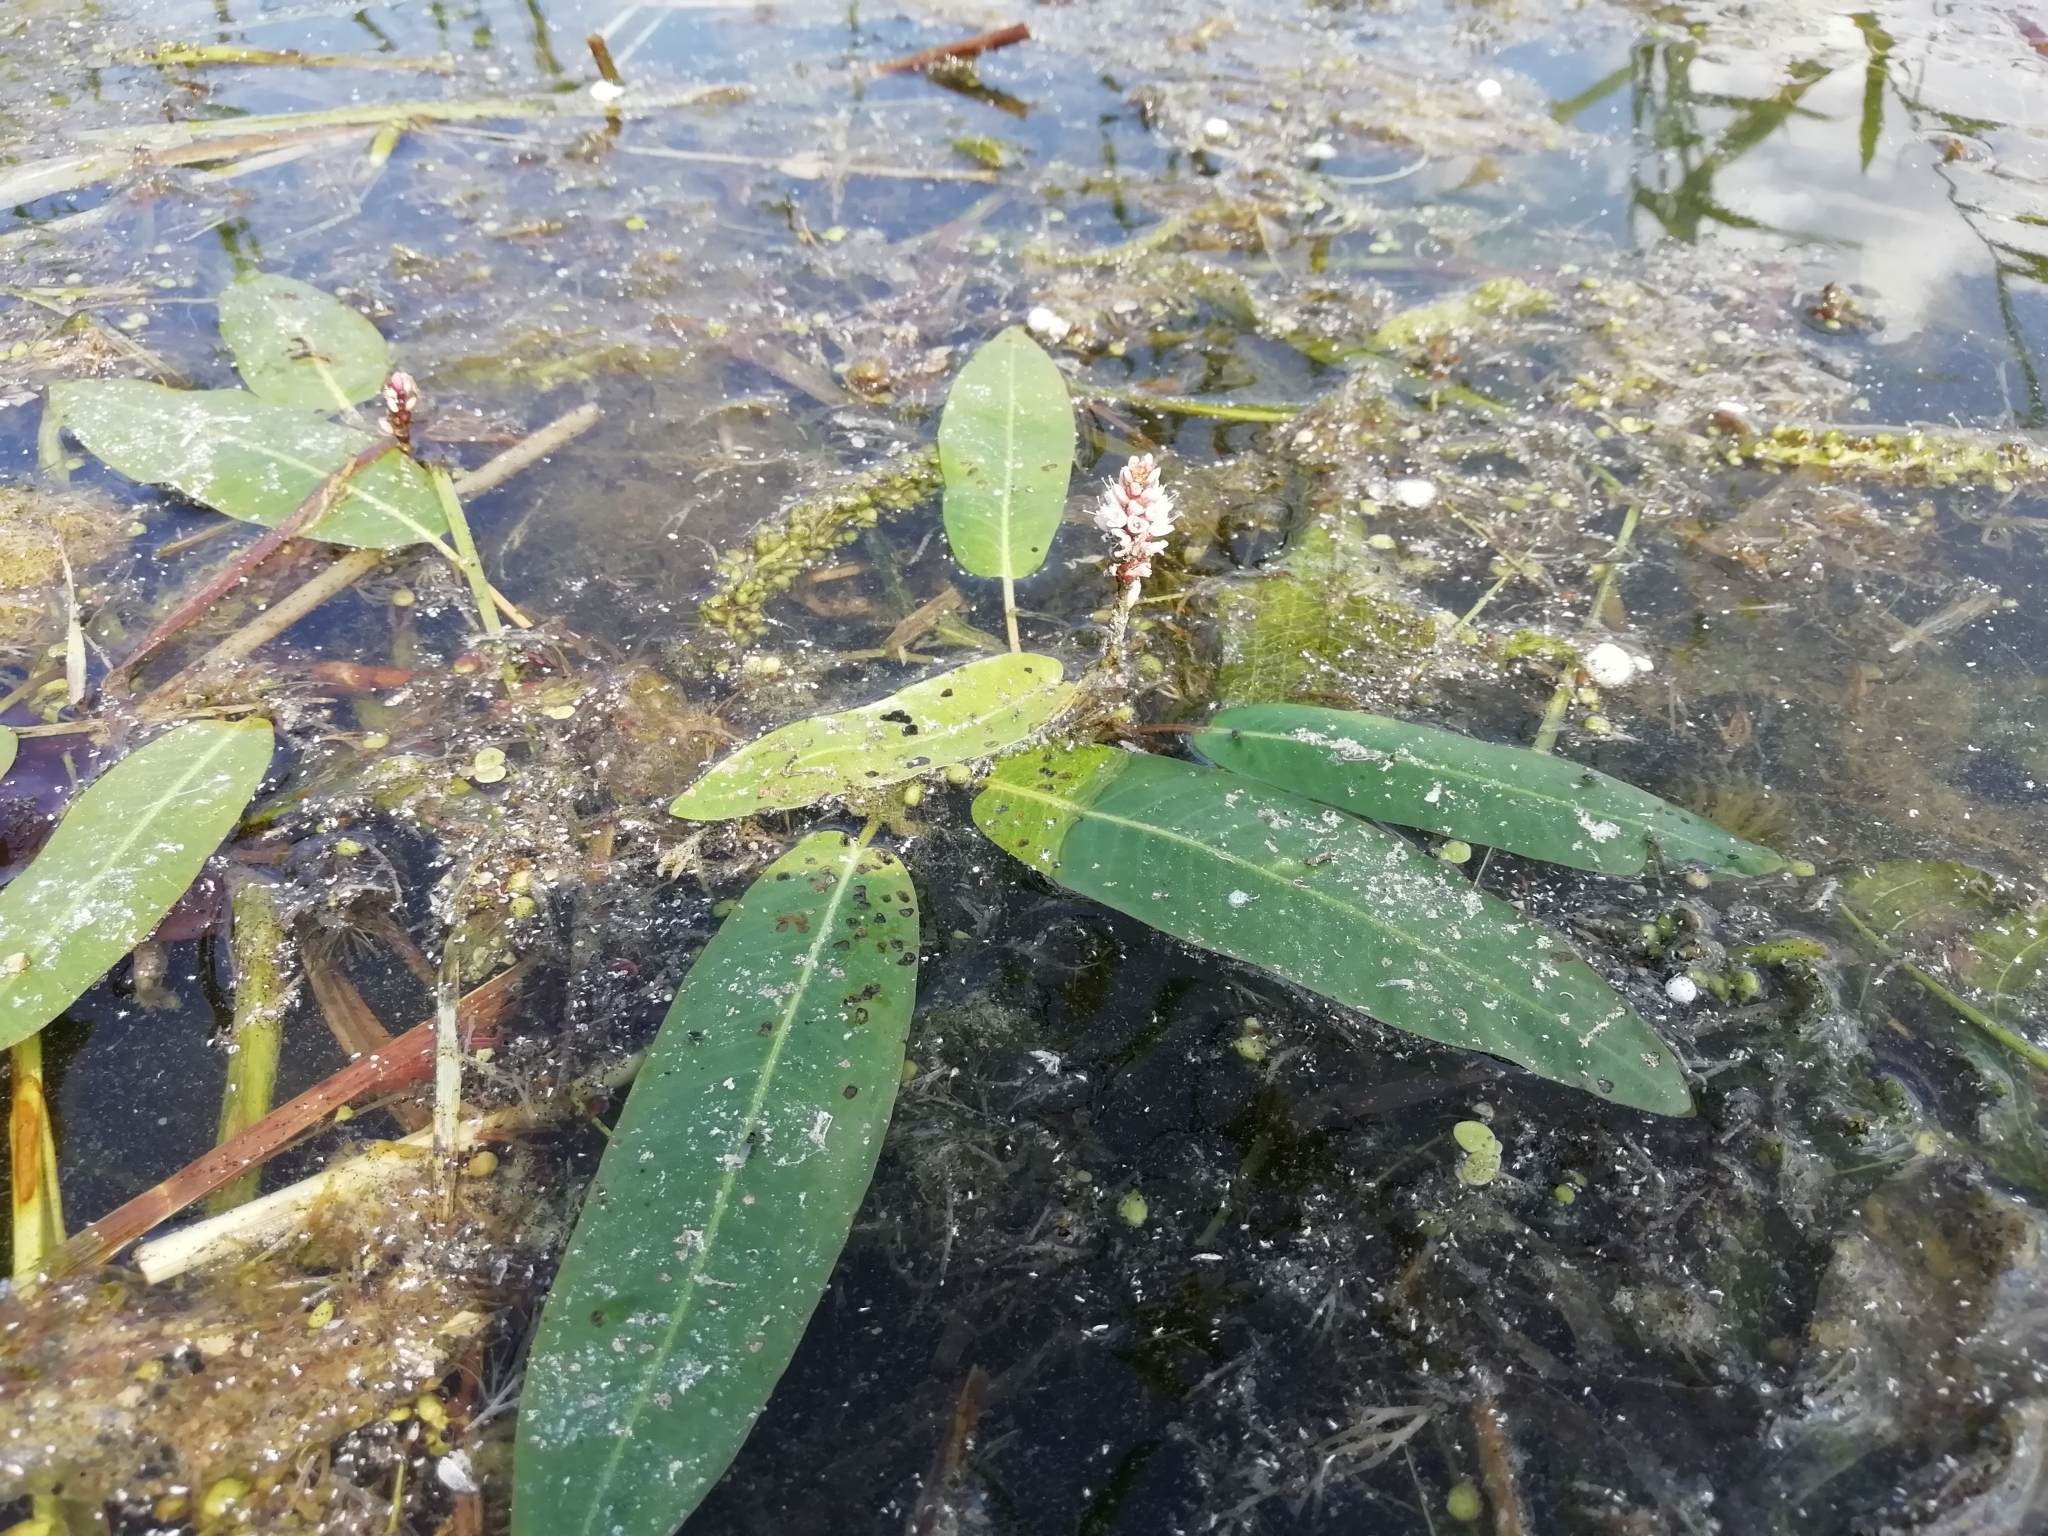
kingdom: Plantae
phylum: Tracheophyta
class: Magnoliopsida
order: Caryophyllales
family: Polygonaceae
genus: Persicaria
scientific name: Persicaria amphibia
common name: Amphibious bistort
